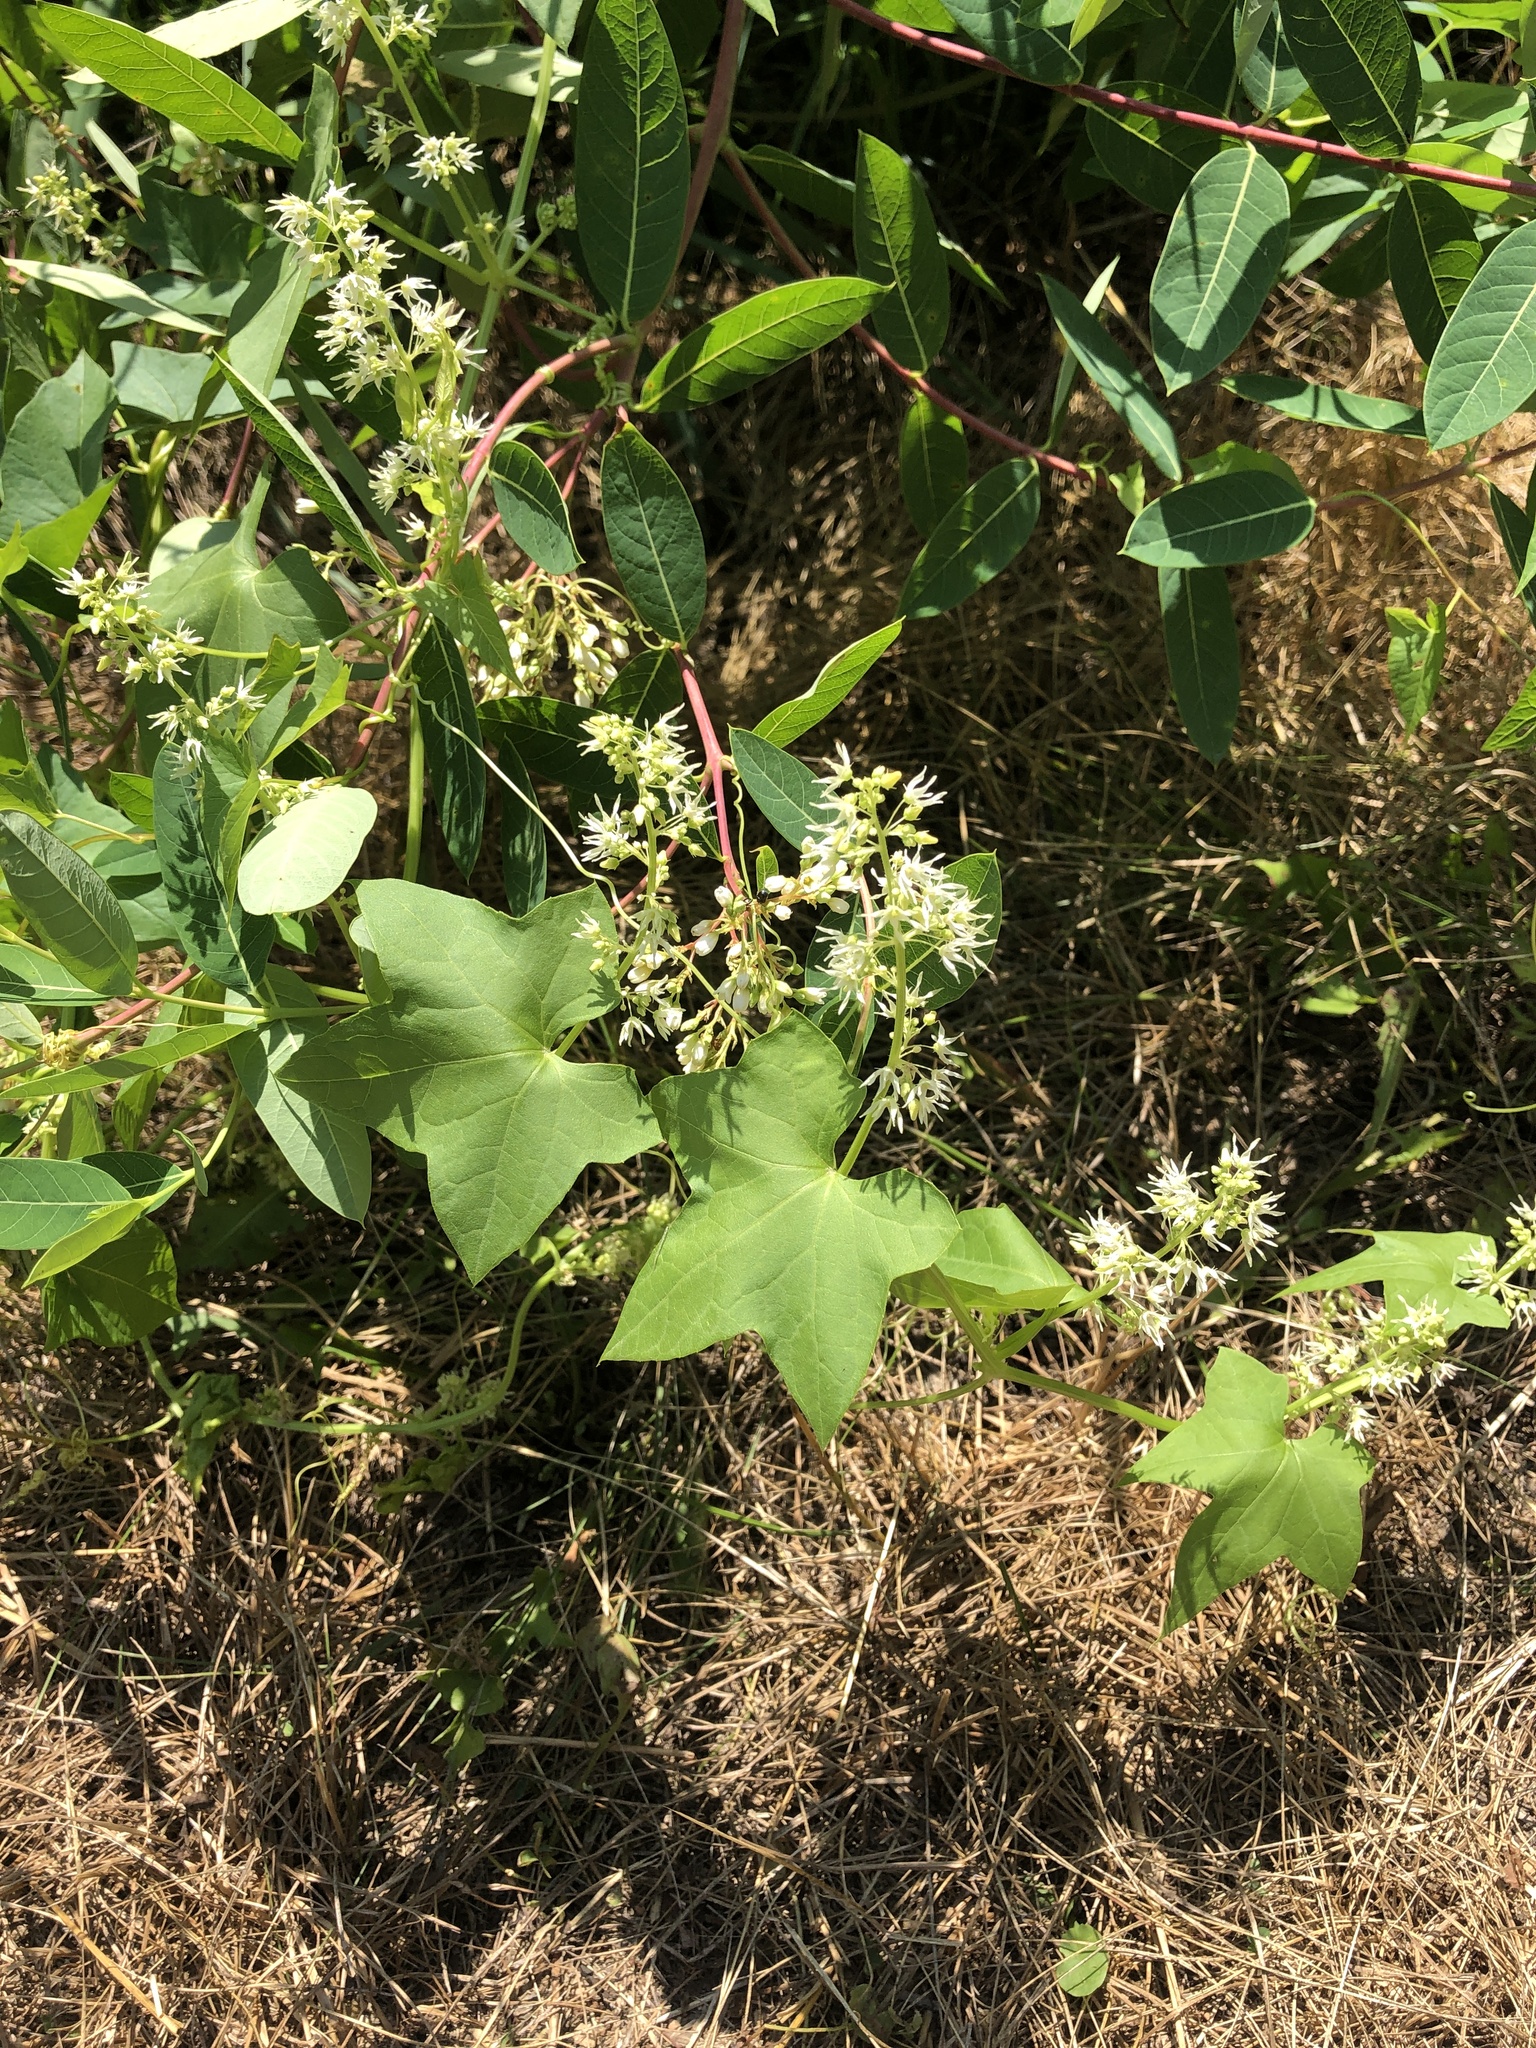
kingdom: Plantae
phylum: Tracheophyta
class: Magnoliopsida
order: Cucurbitales
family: Cucurbitaceae
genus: Echinocystis
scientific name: Echinocystis lobata
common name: Wild cucumber
